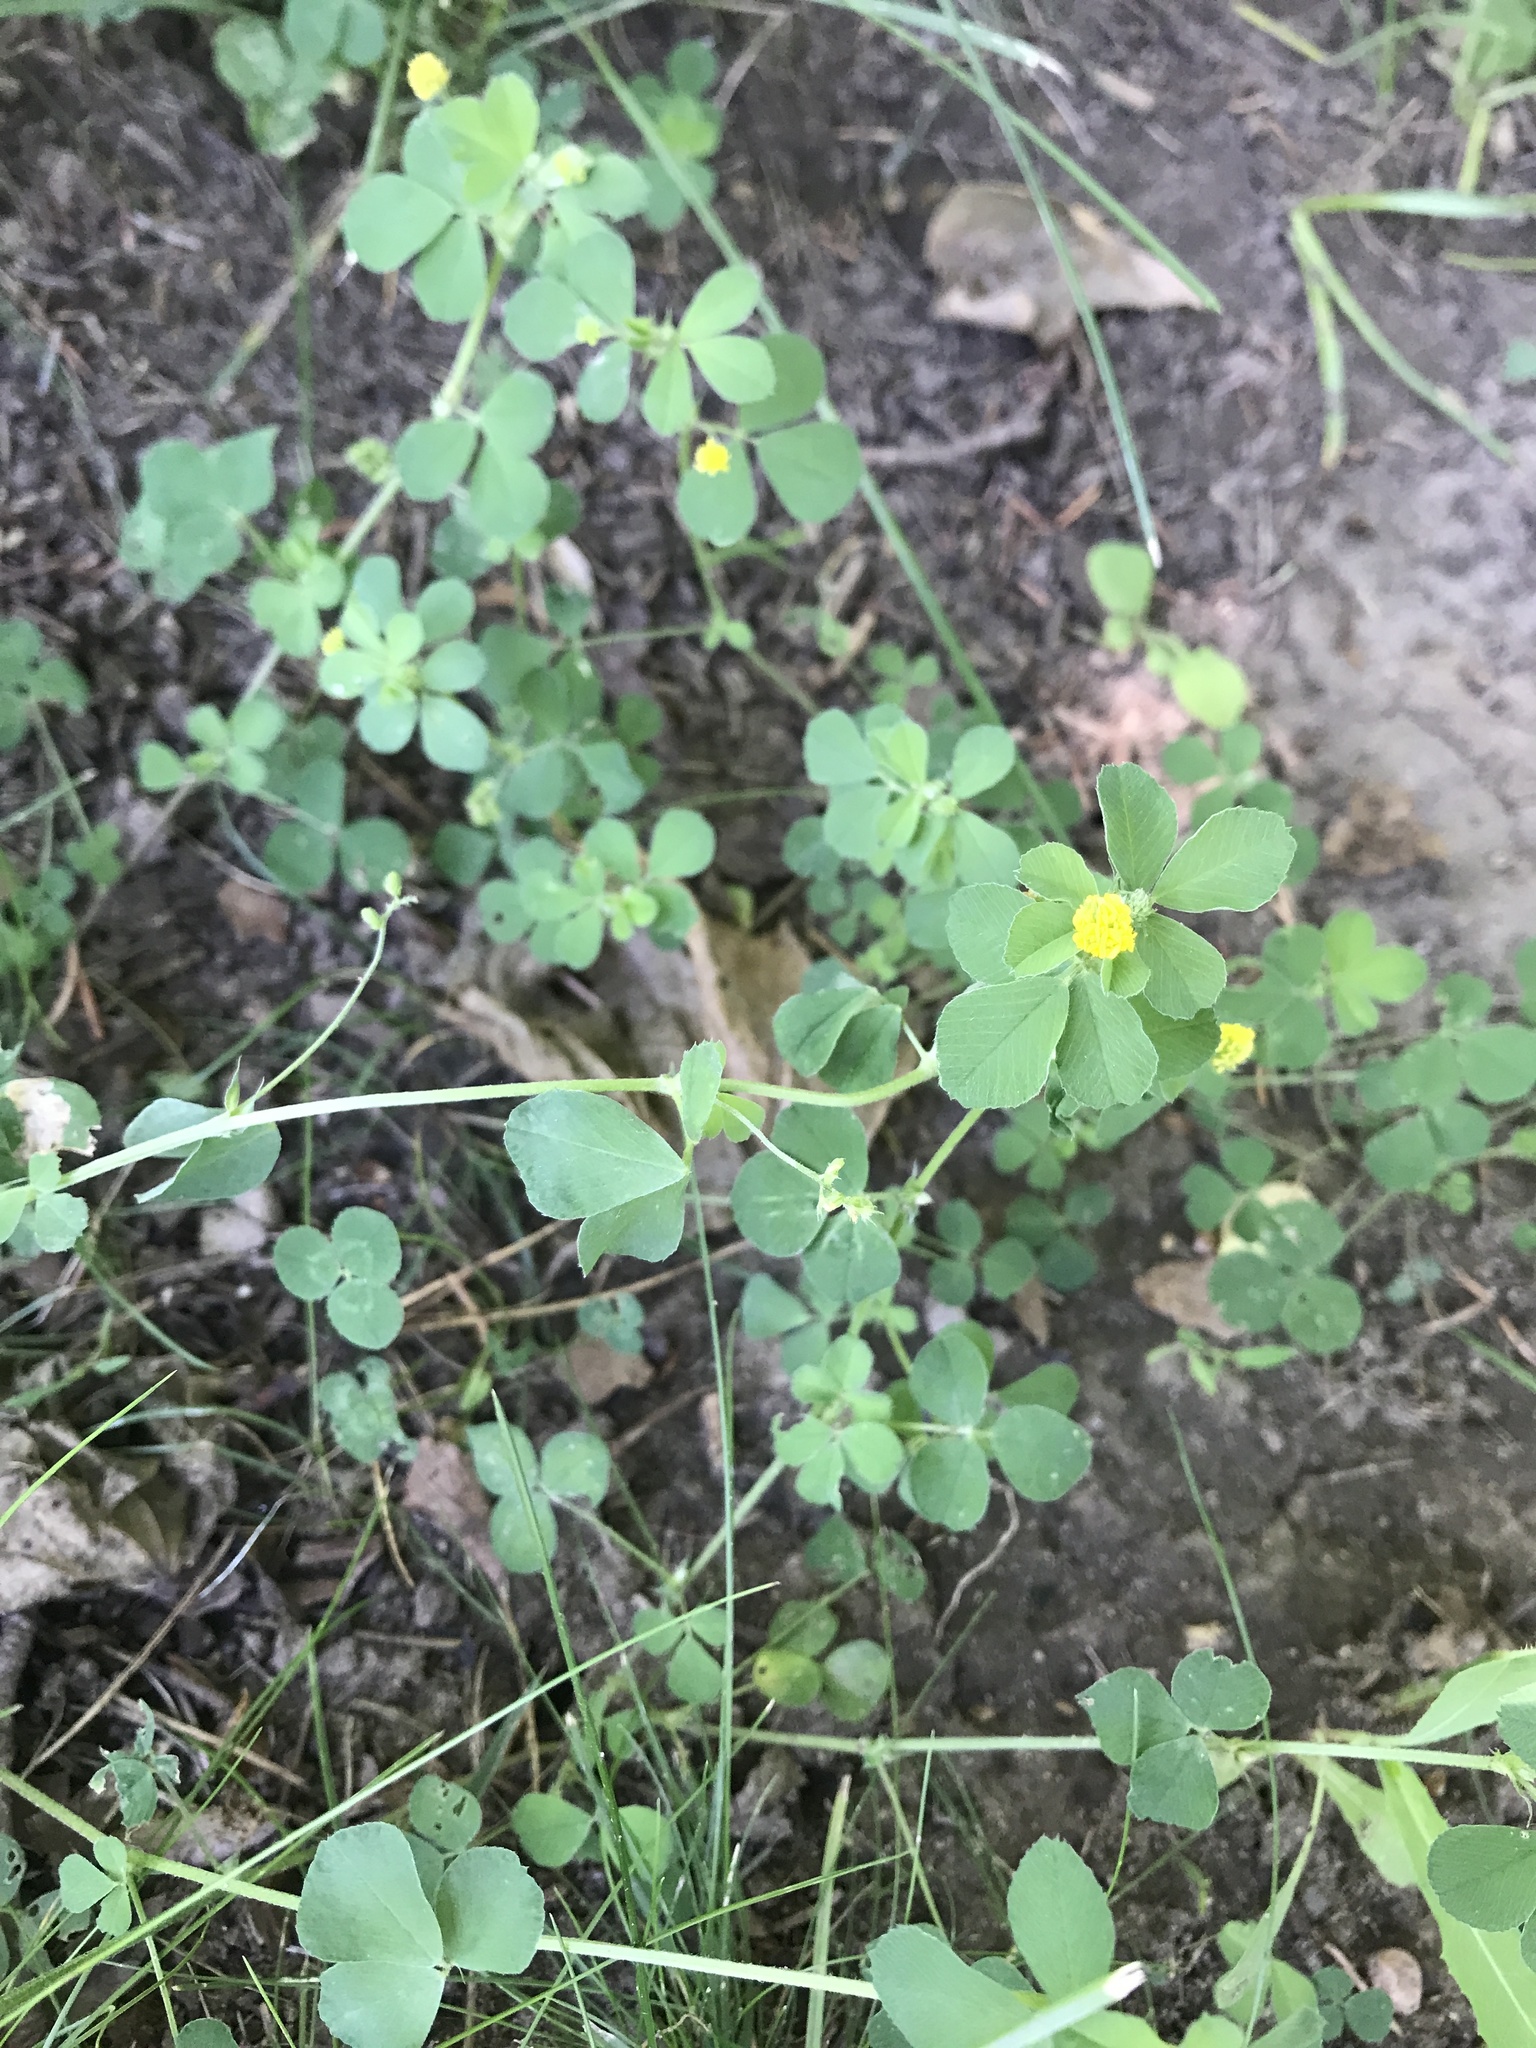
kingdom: Plantae
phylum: Tracheophyta
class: Magnoliopsida
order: Fabales
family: Fabaceae
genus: Medicago
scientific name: Medicago lupulina
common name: Black medick
